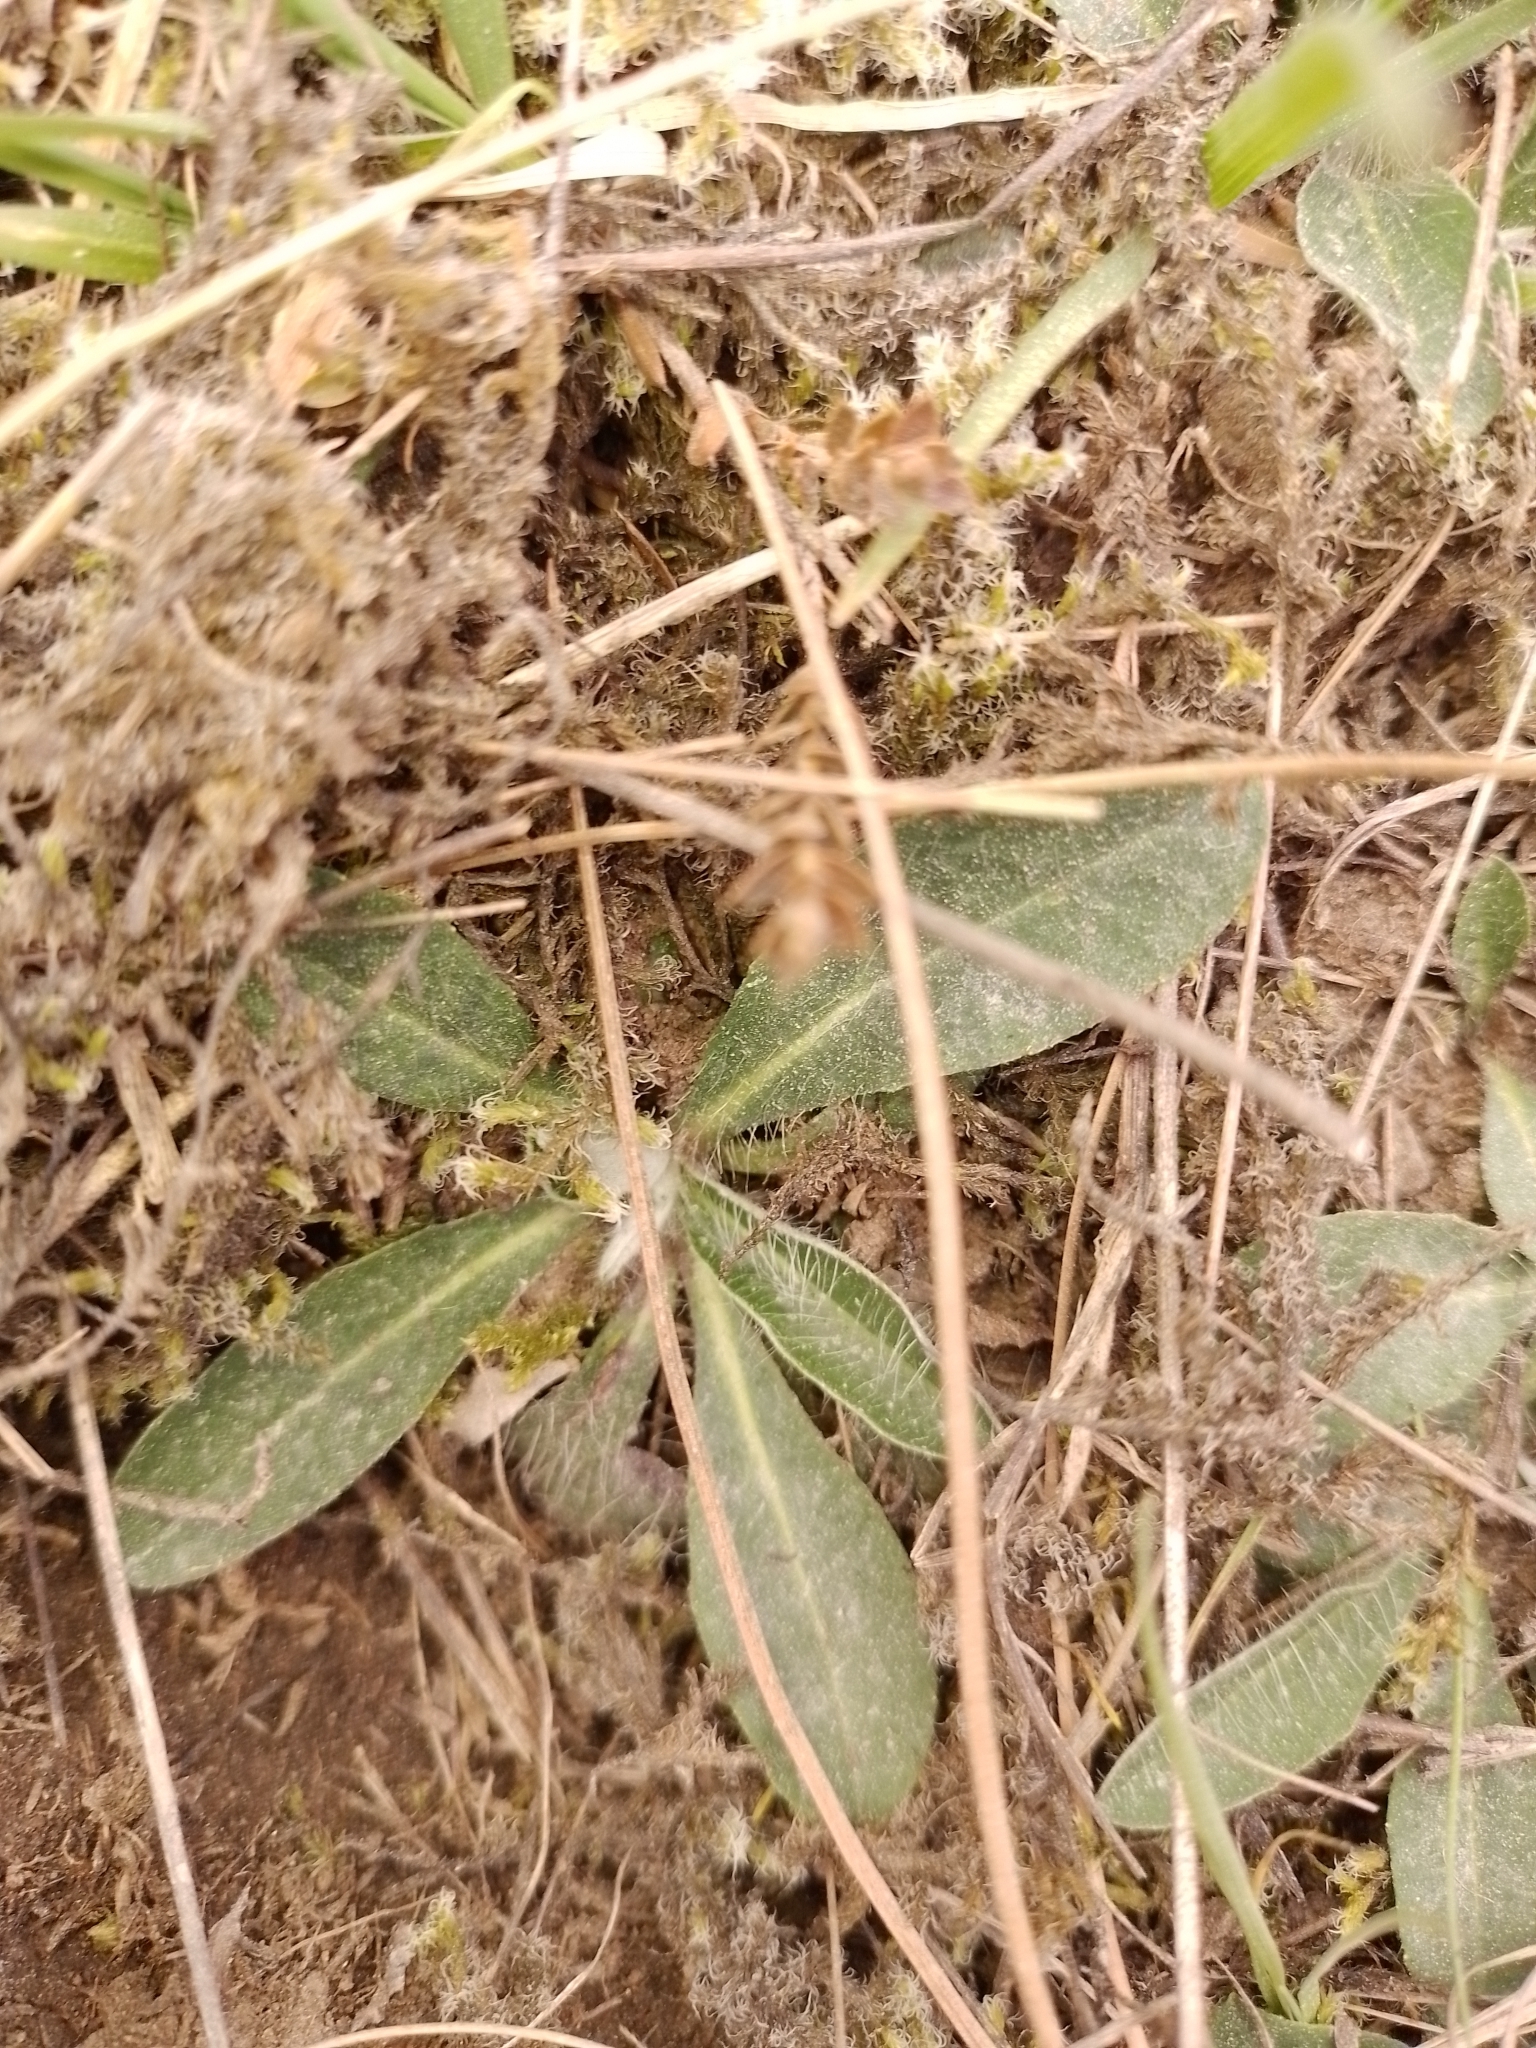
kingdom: Plantae
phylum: Tracheophyta
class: Magnoliopsida
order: Asterales
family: Asteraceae
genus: Pilosella
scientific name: Pilosella officinarum
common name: Mouse-ear hawkweed
